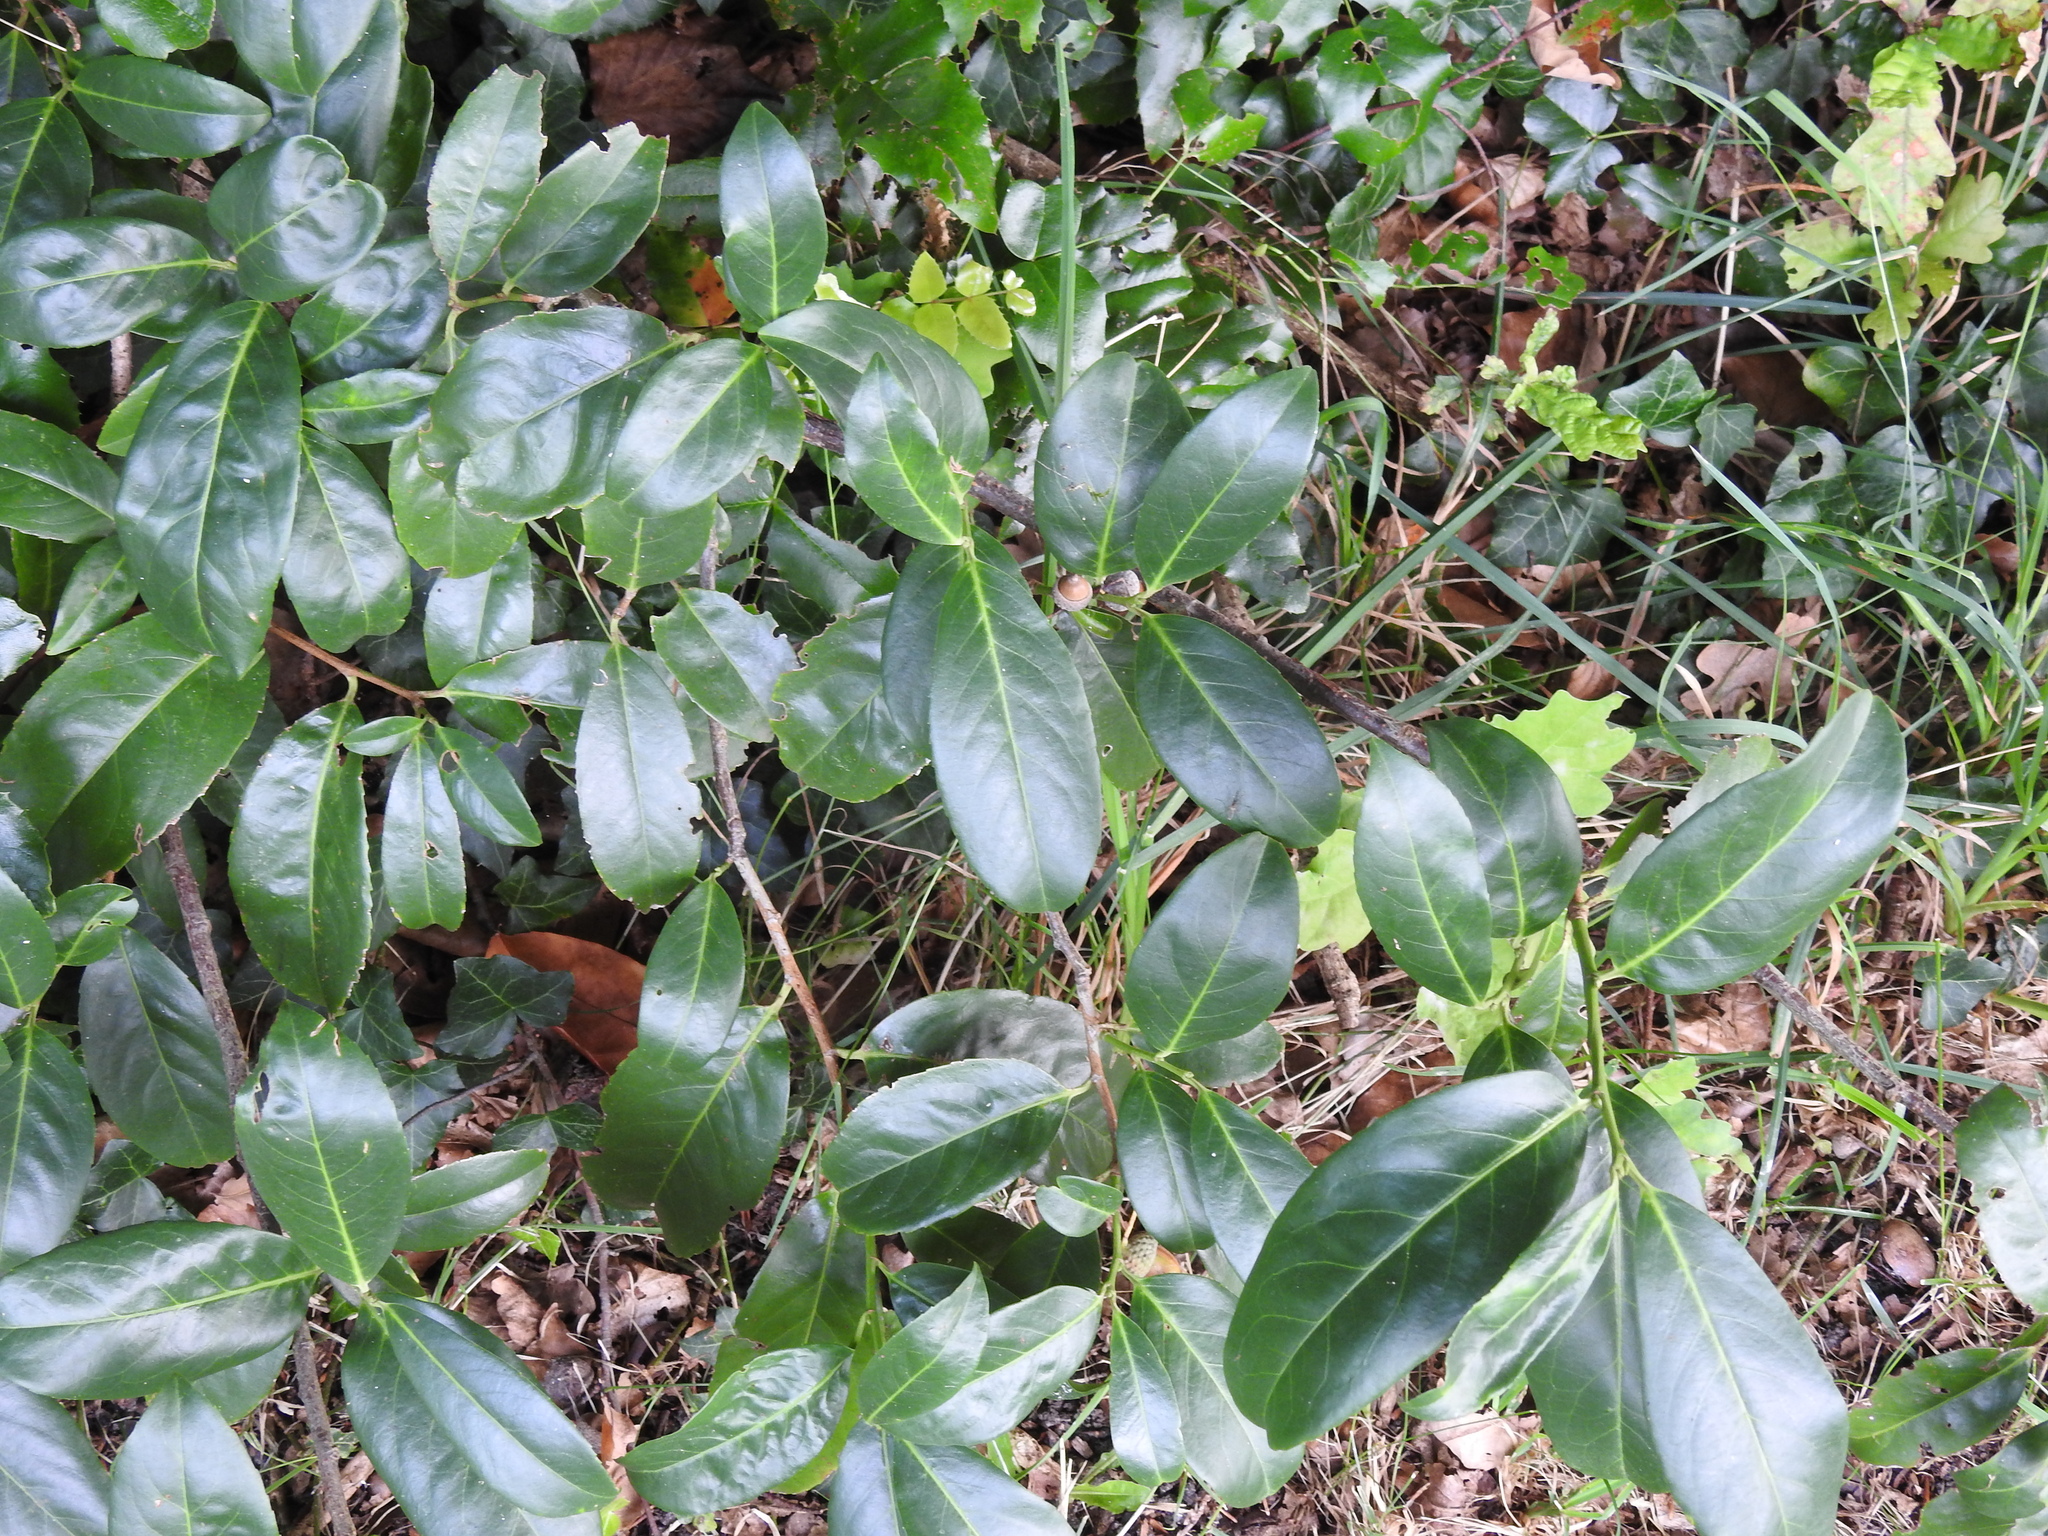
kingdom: Plantae
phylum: Tracheophyta
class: Magnoliopsida
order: Rosales
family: Rosaceae
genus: Prunus
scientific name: Prunus laurocerasus
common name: Cherry laurel
